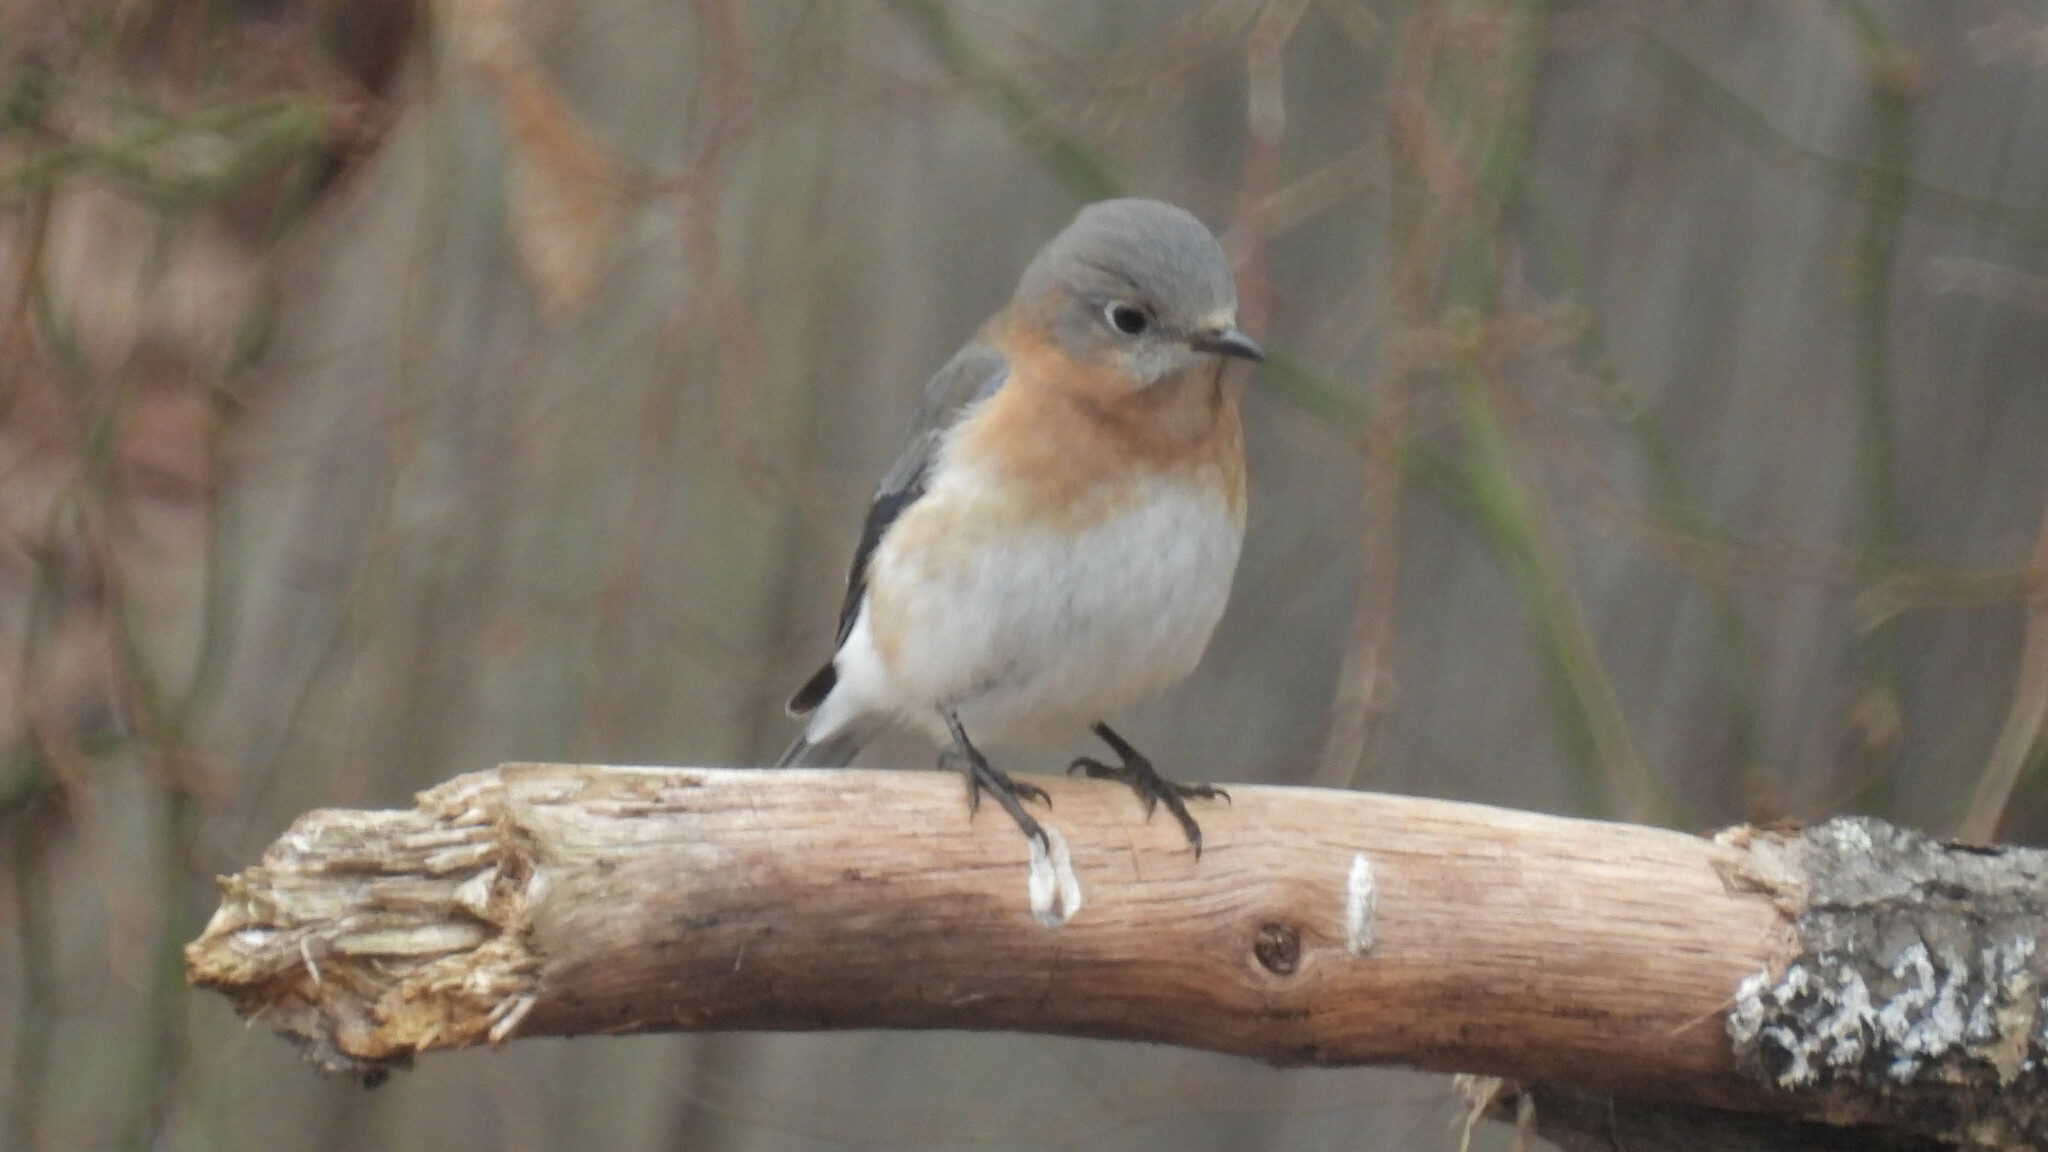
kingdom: Animalia
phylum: Chordata
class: Aves
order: Passeriformes
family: Turdidae
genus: Sialia
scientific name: Sialia sialis
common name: Eastern bluebird
